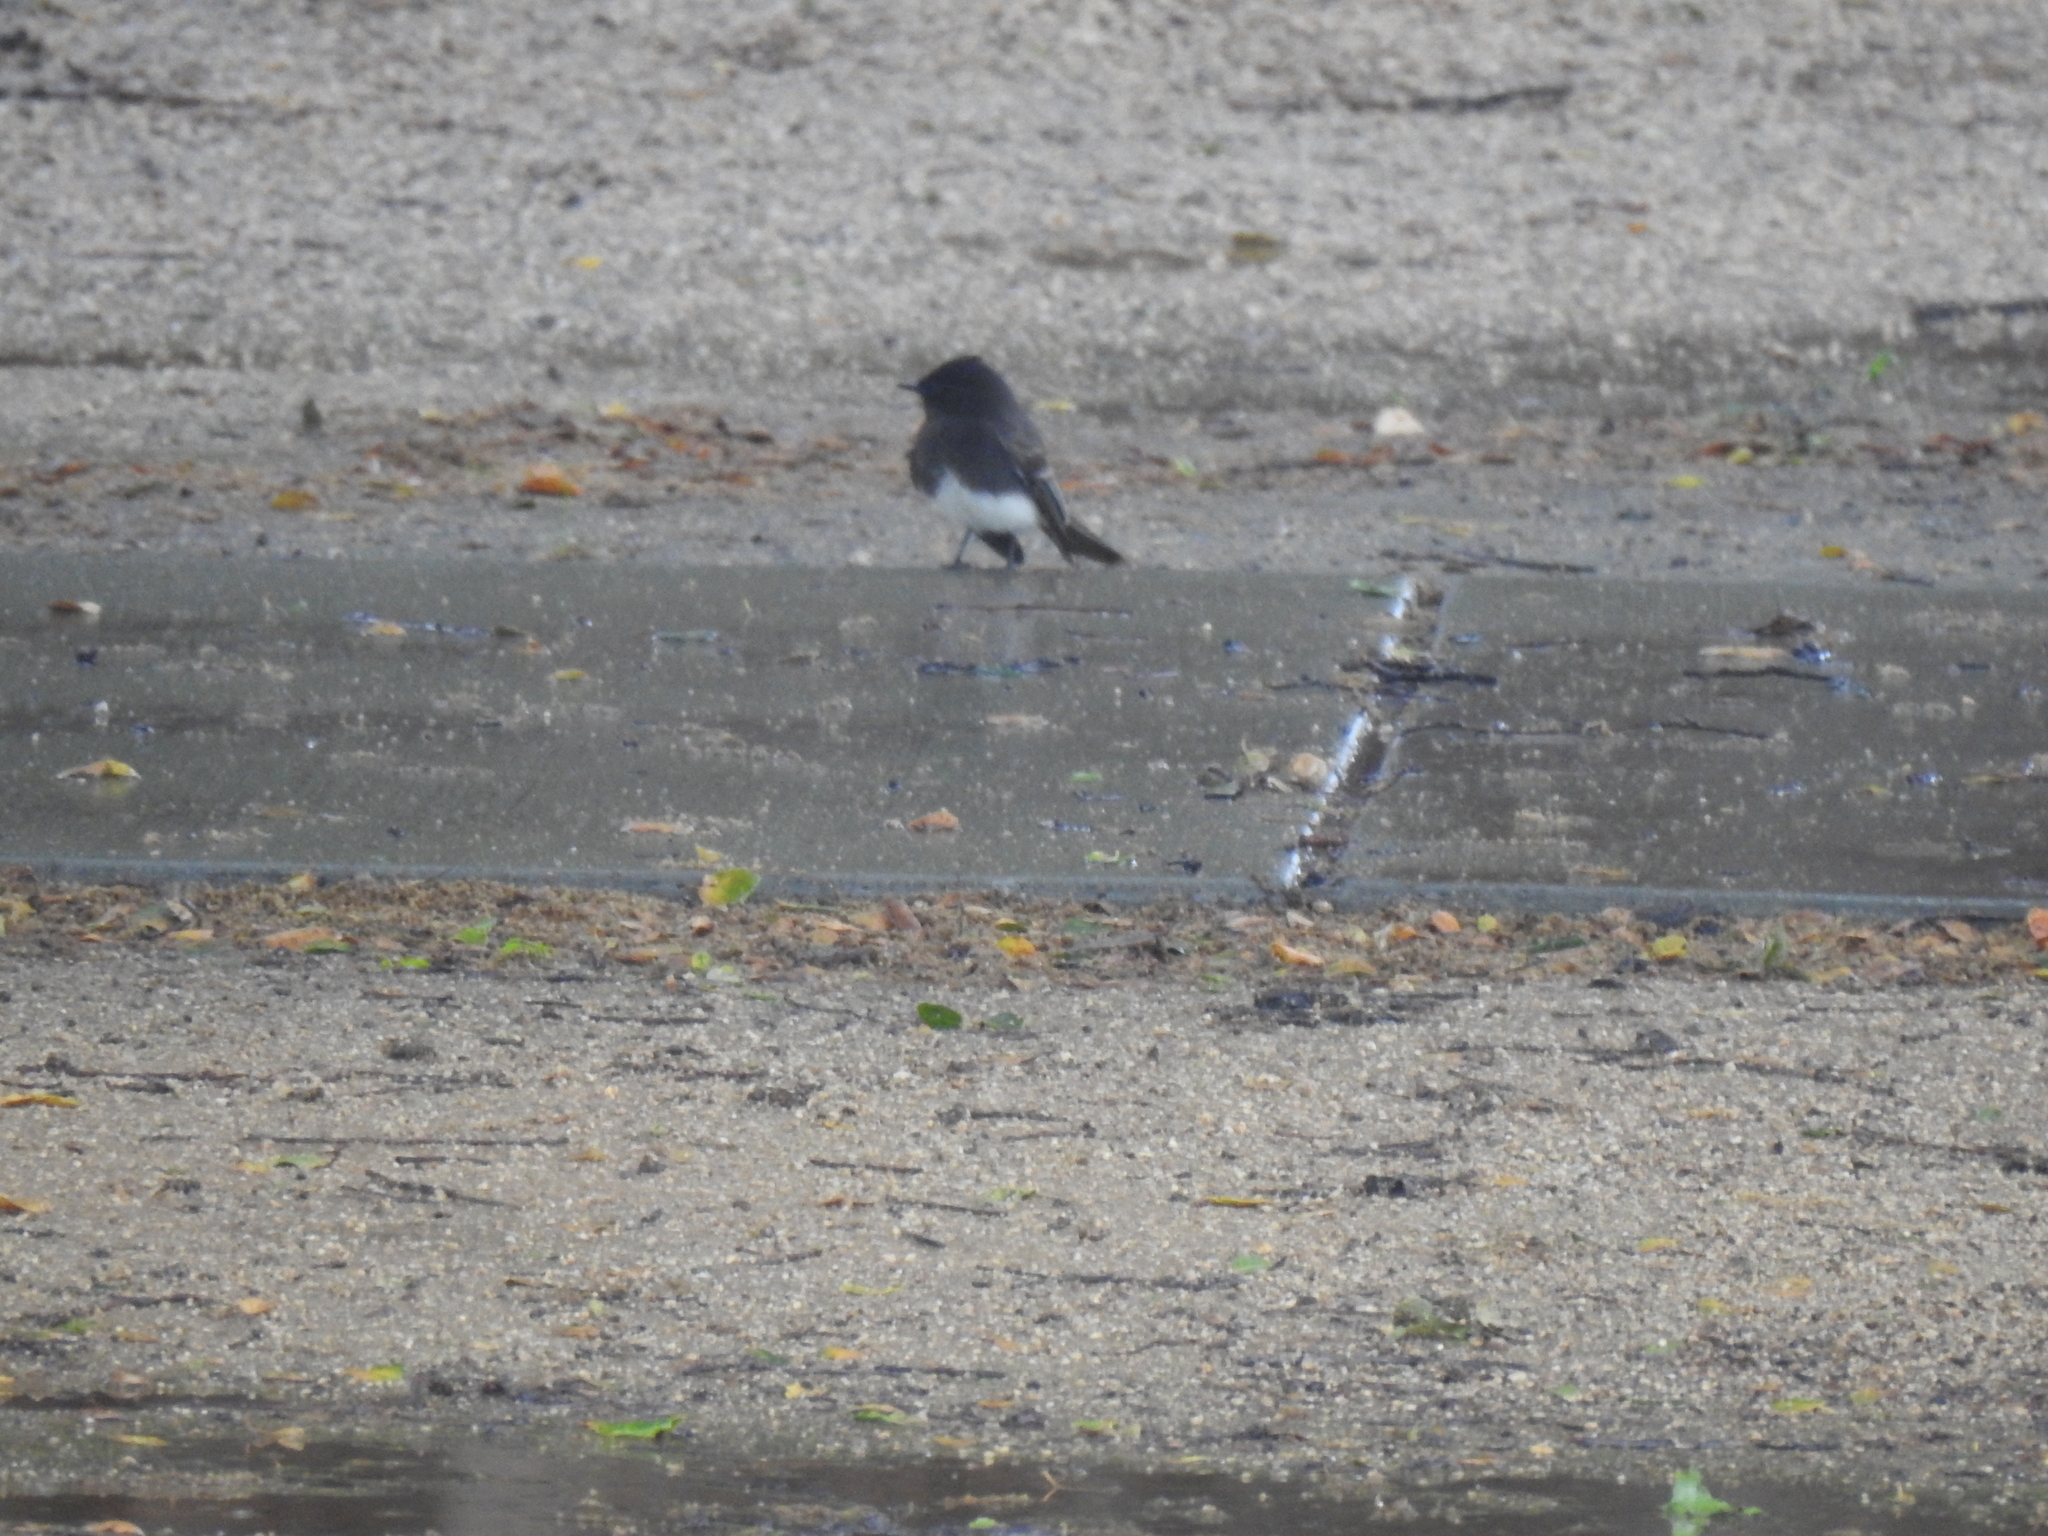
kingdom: Animalia
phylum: Chordata
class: Aves
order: Passeriformes
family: Tyrannidae
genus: Sayornis
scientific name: Sayornis nigricans
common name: Black phoebe
